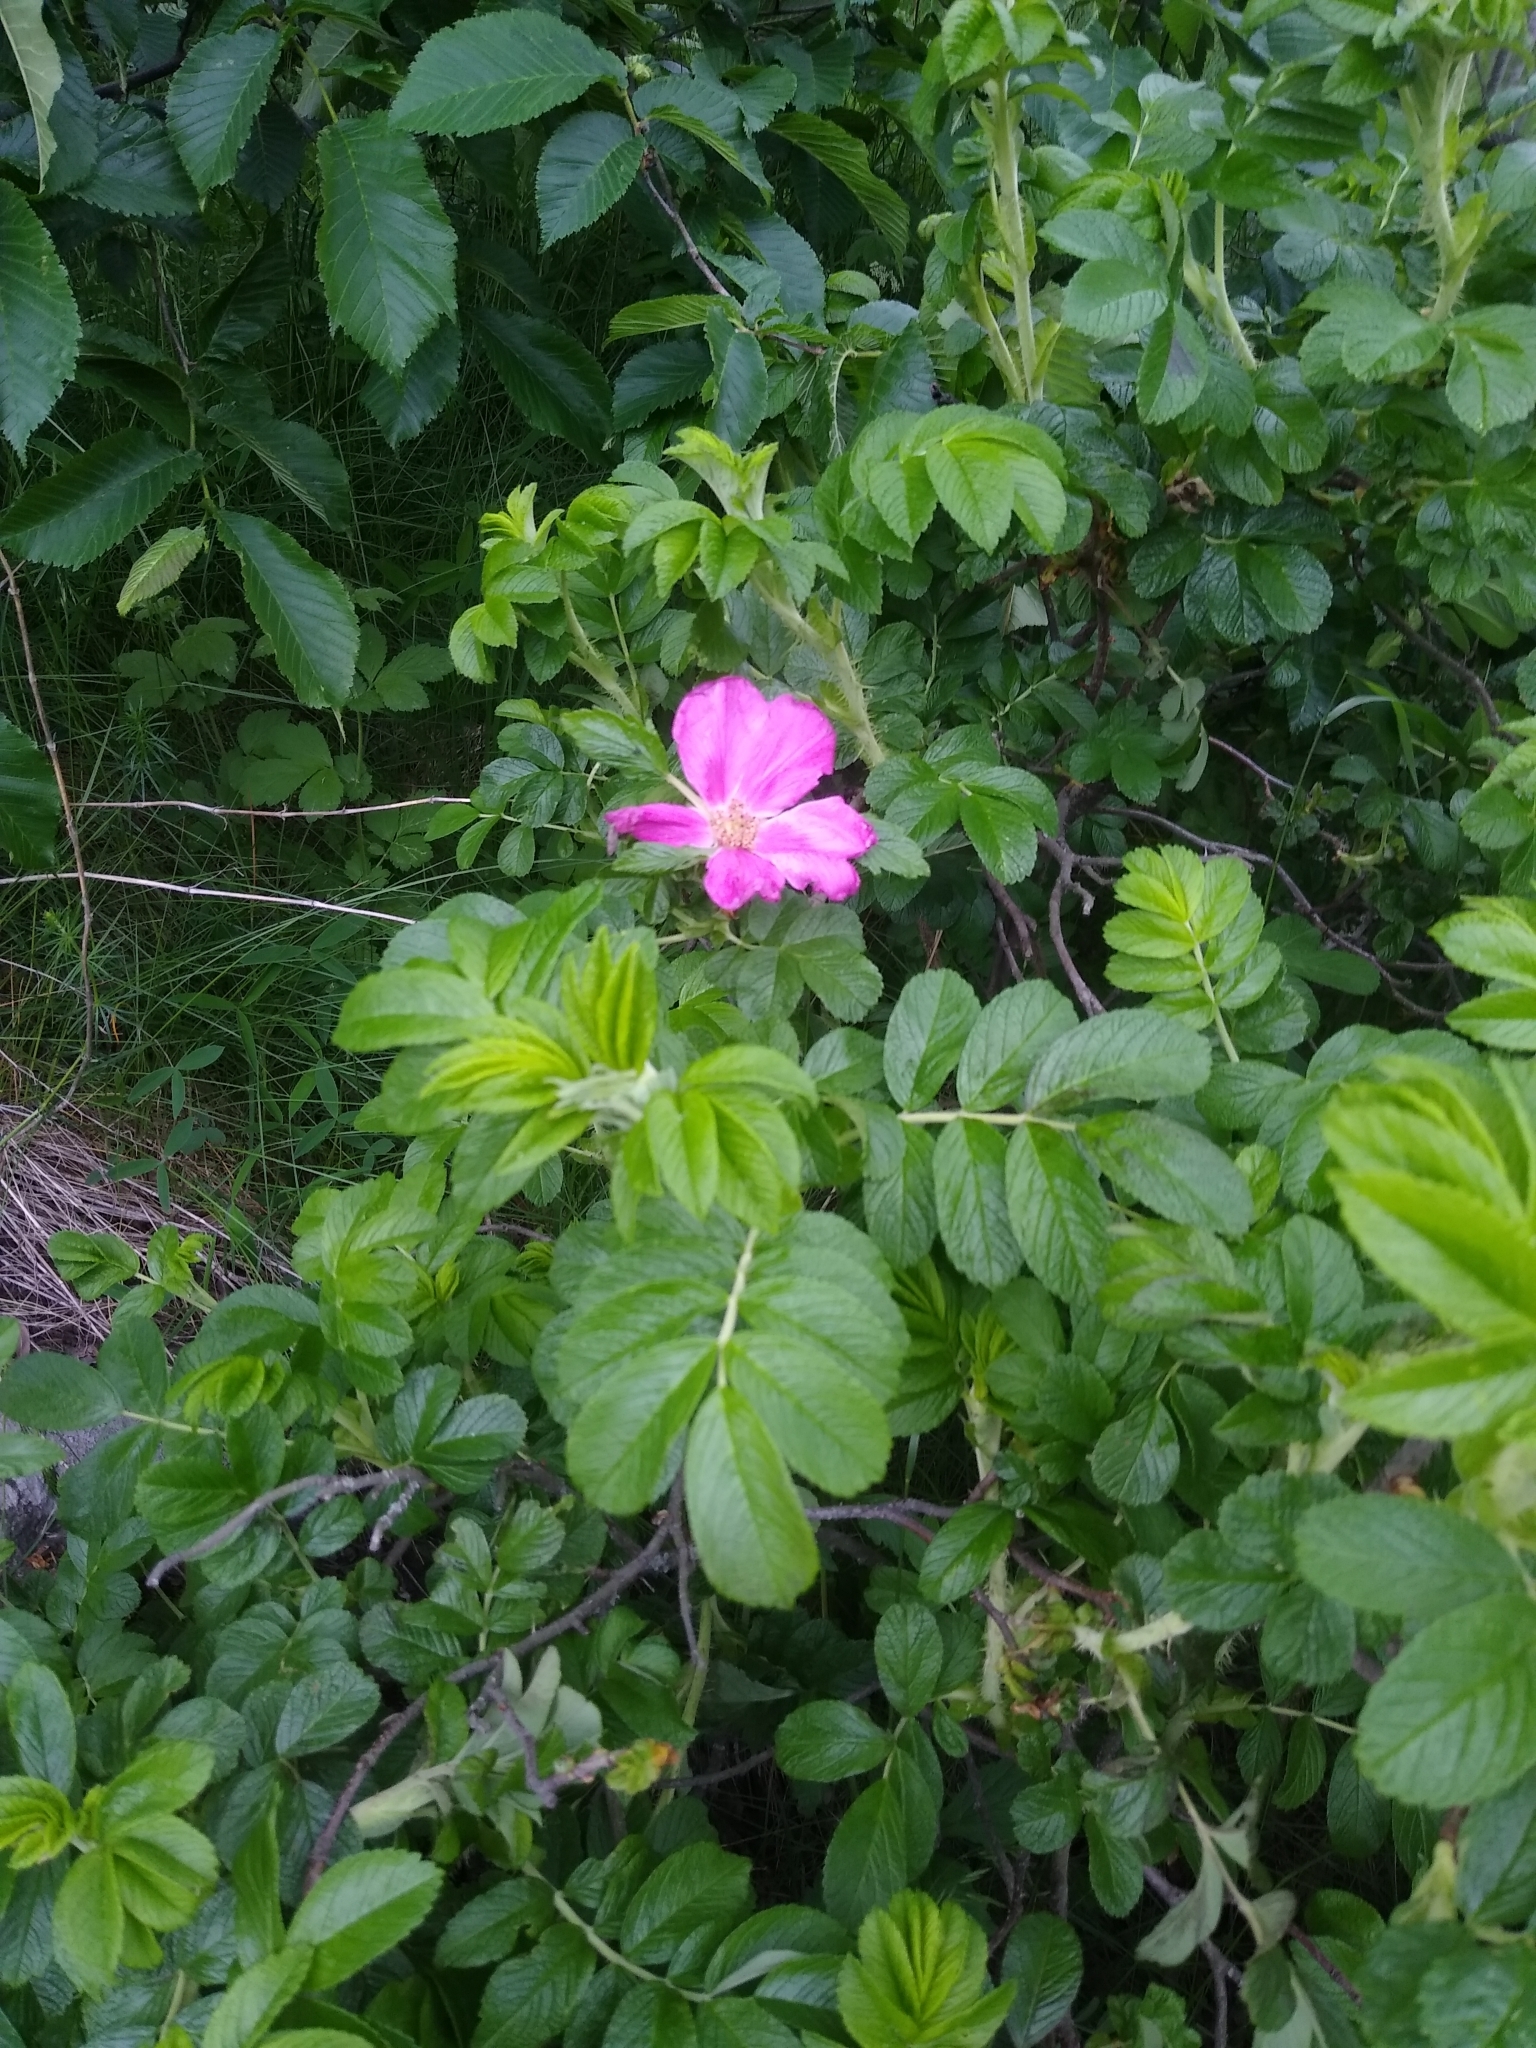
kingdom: Plantae
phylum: Tracheophyta
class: Magnoliopsida
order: Rosales
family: Rosaceae
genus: Rosa
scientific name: Rosa rugosa
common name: Japanese rose
